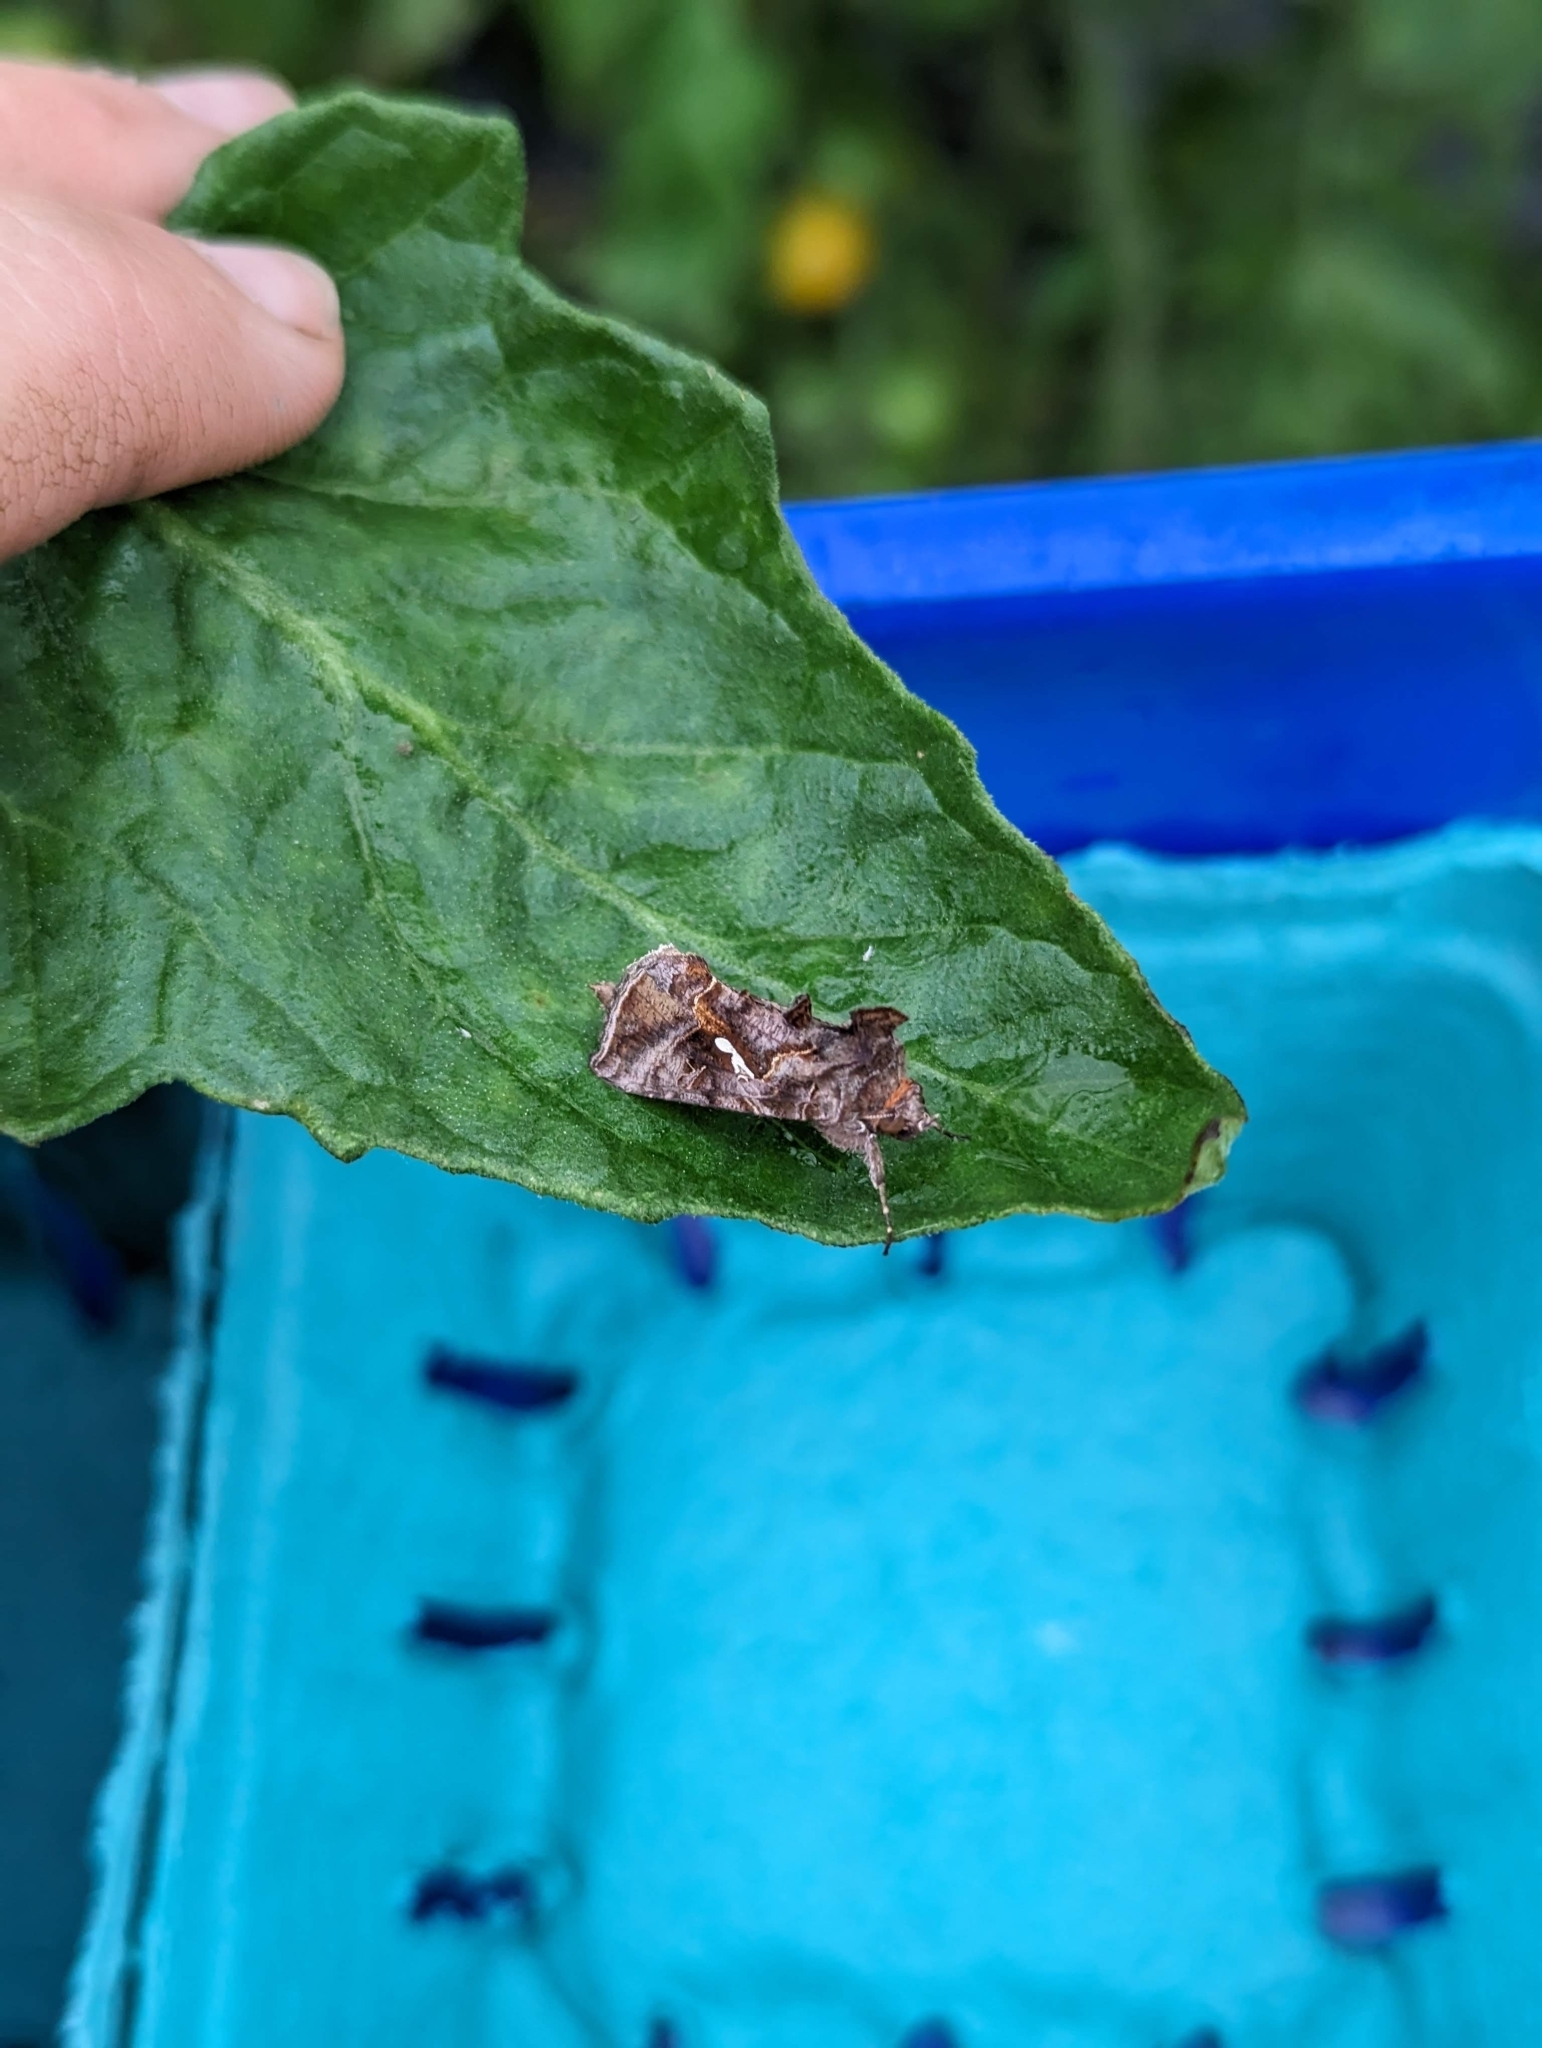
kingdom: Animalia
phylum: Arthropoda
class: Insecta
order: Lepidoptera
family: Noctuidae
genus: Autographa
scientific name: Autographa precationis
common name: Common looper moth
